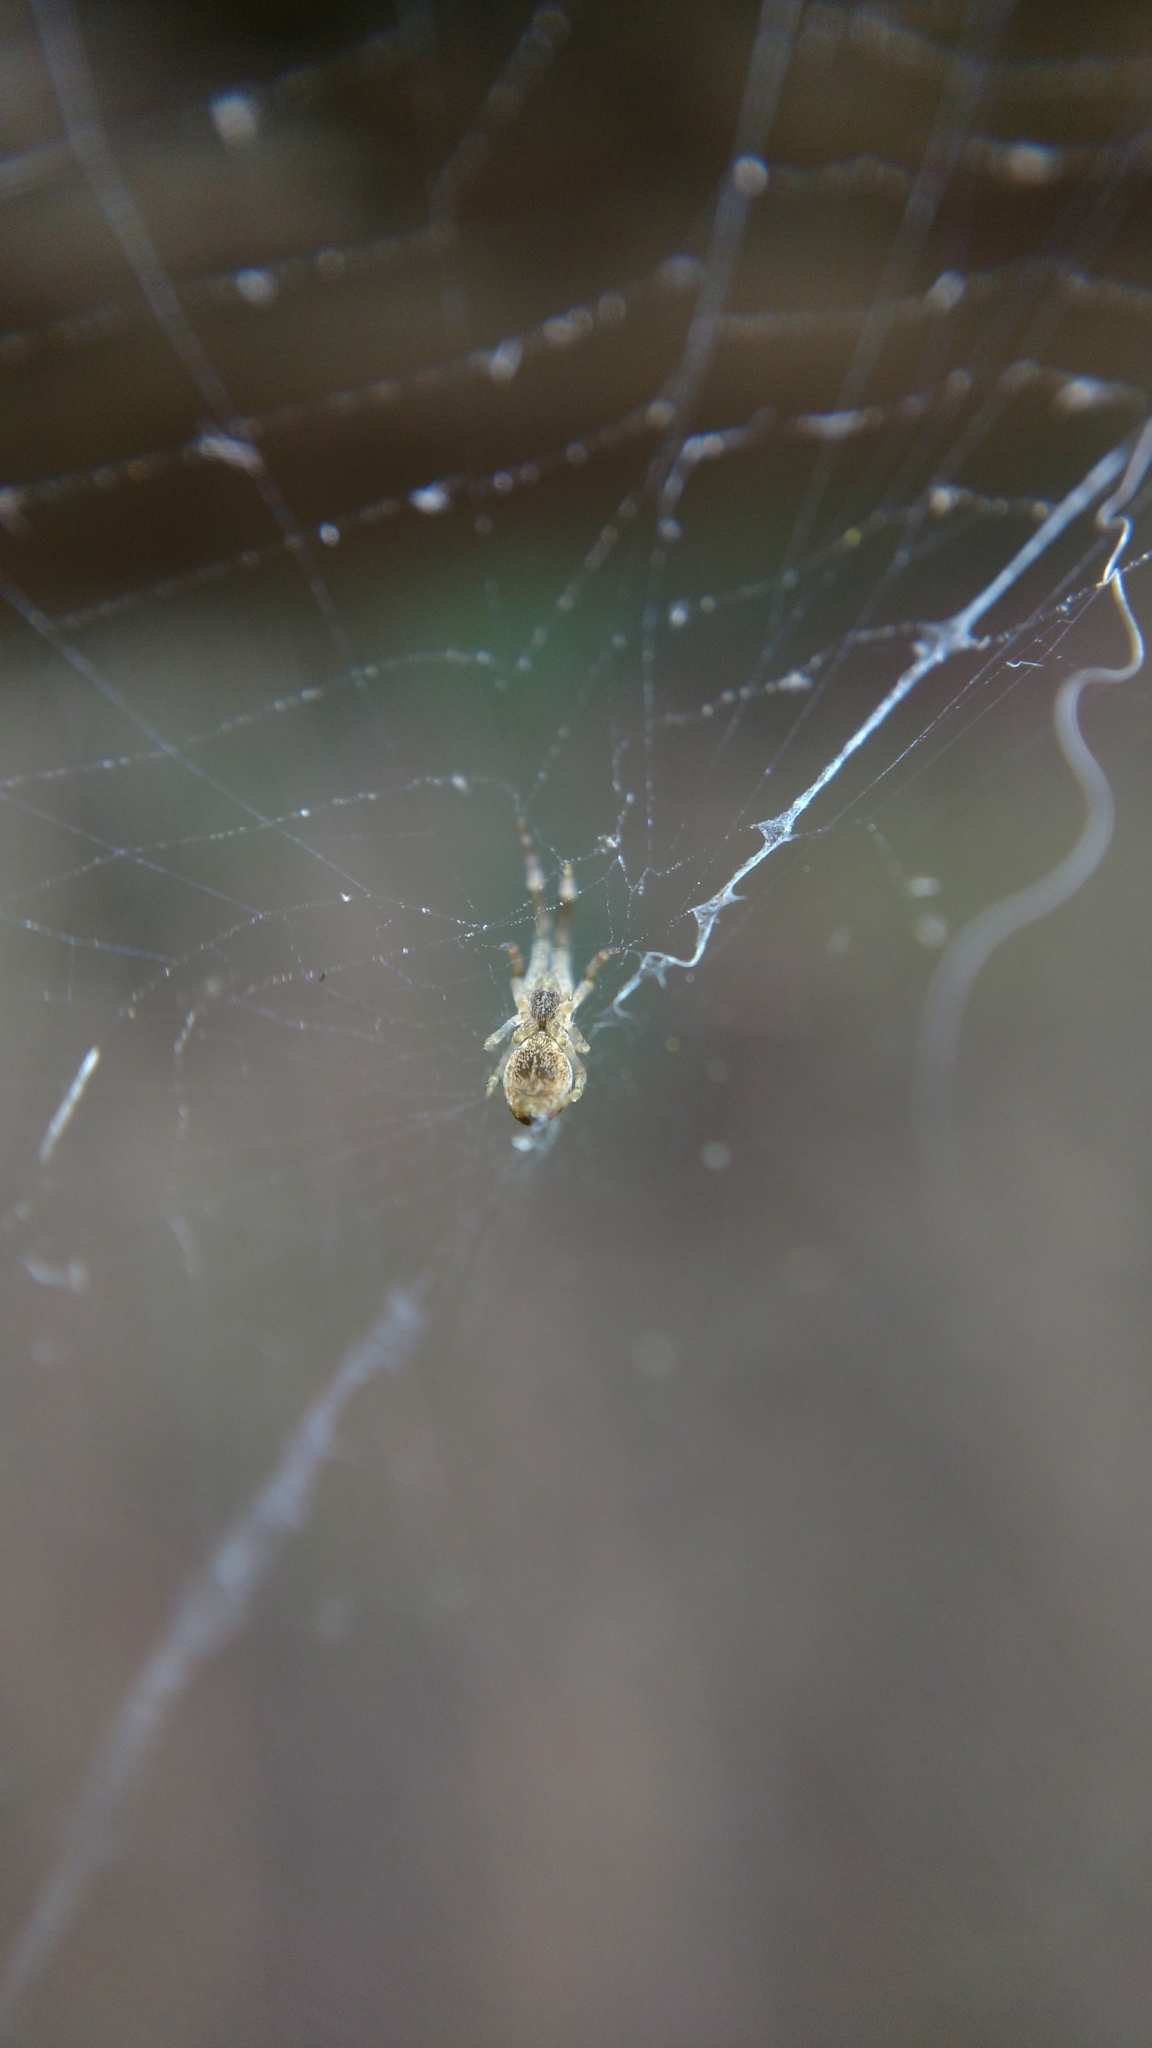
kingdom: Animalia
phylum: Arthropoda
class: Arachnida
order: Araneae
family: Uloboridae
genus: Uloborus
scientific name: Uloborus glomosus
